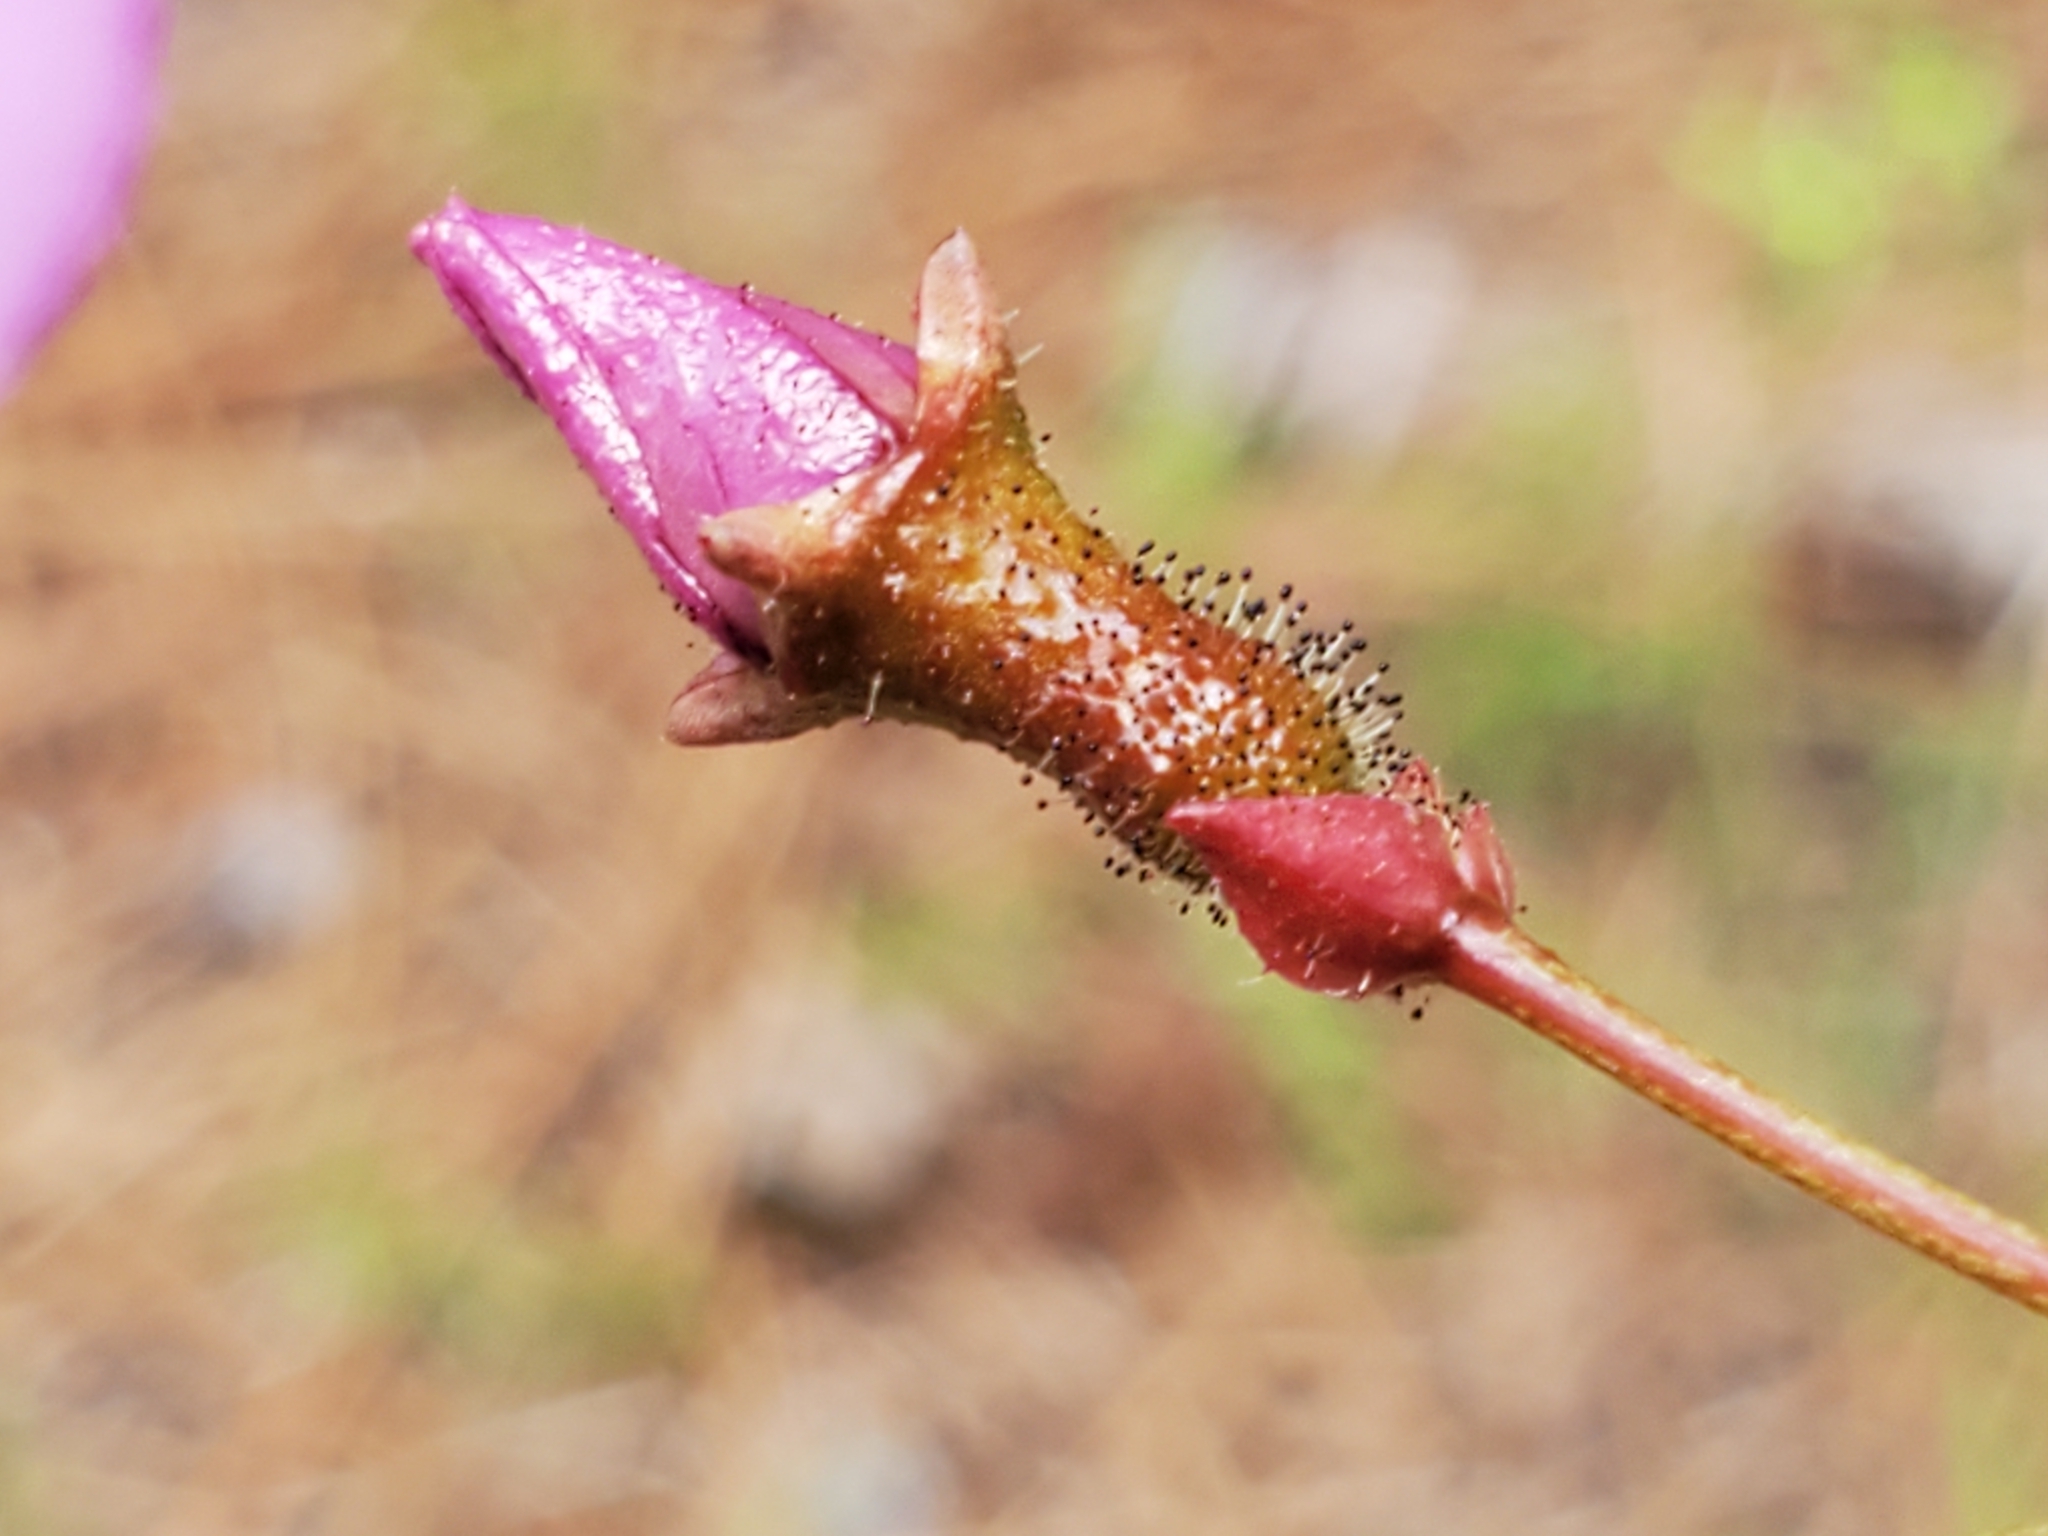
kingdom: Plantae
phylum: Tracheophyta
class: Magnoliopsida
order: Myrtales
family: Melastomataceae
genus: Rhexia
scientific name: Rhexia alifanus
